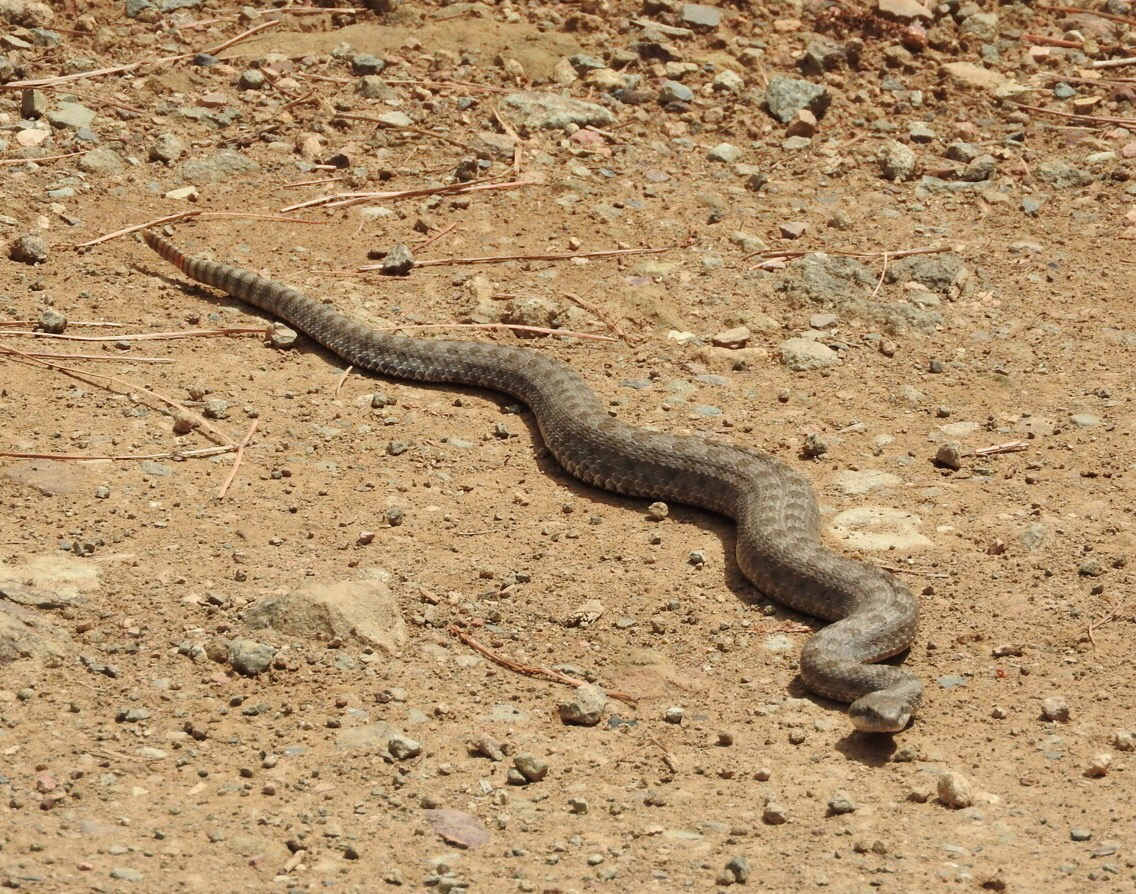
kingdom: Animalia
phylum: Chordata
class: Squamata
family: Viperidae
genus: Crotalus
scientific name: Crotalus pricei
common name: Twin-spotted rattlesnake
